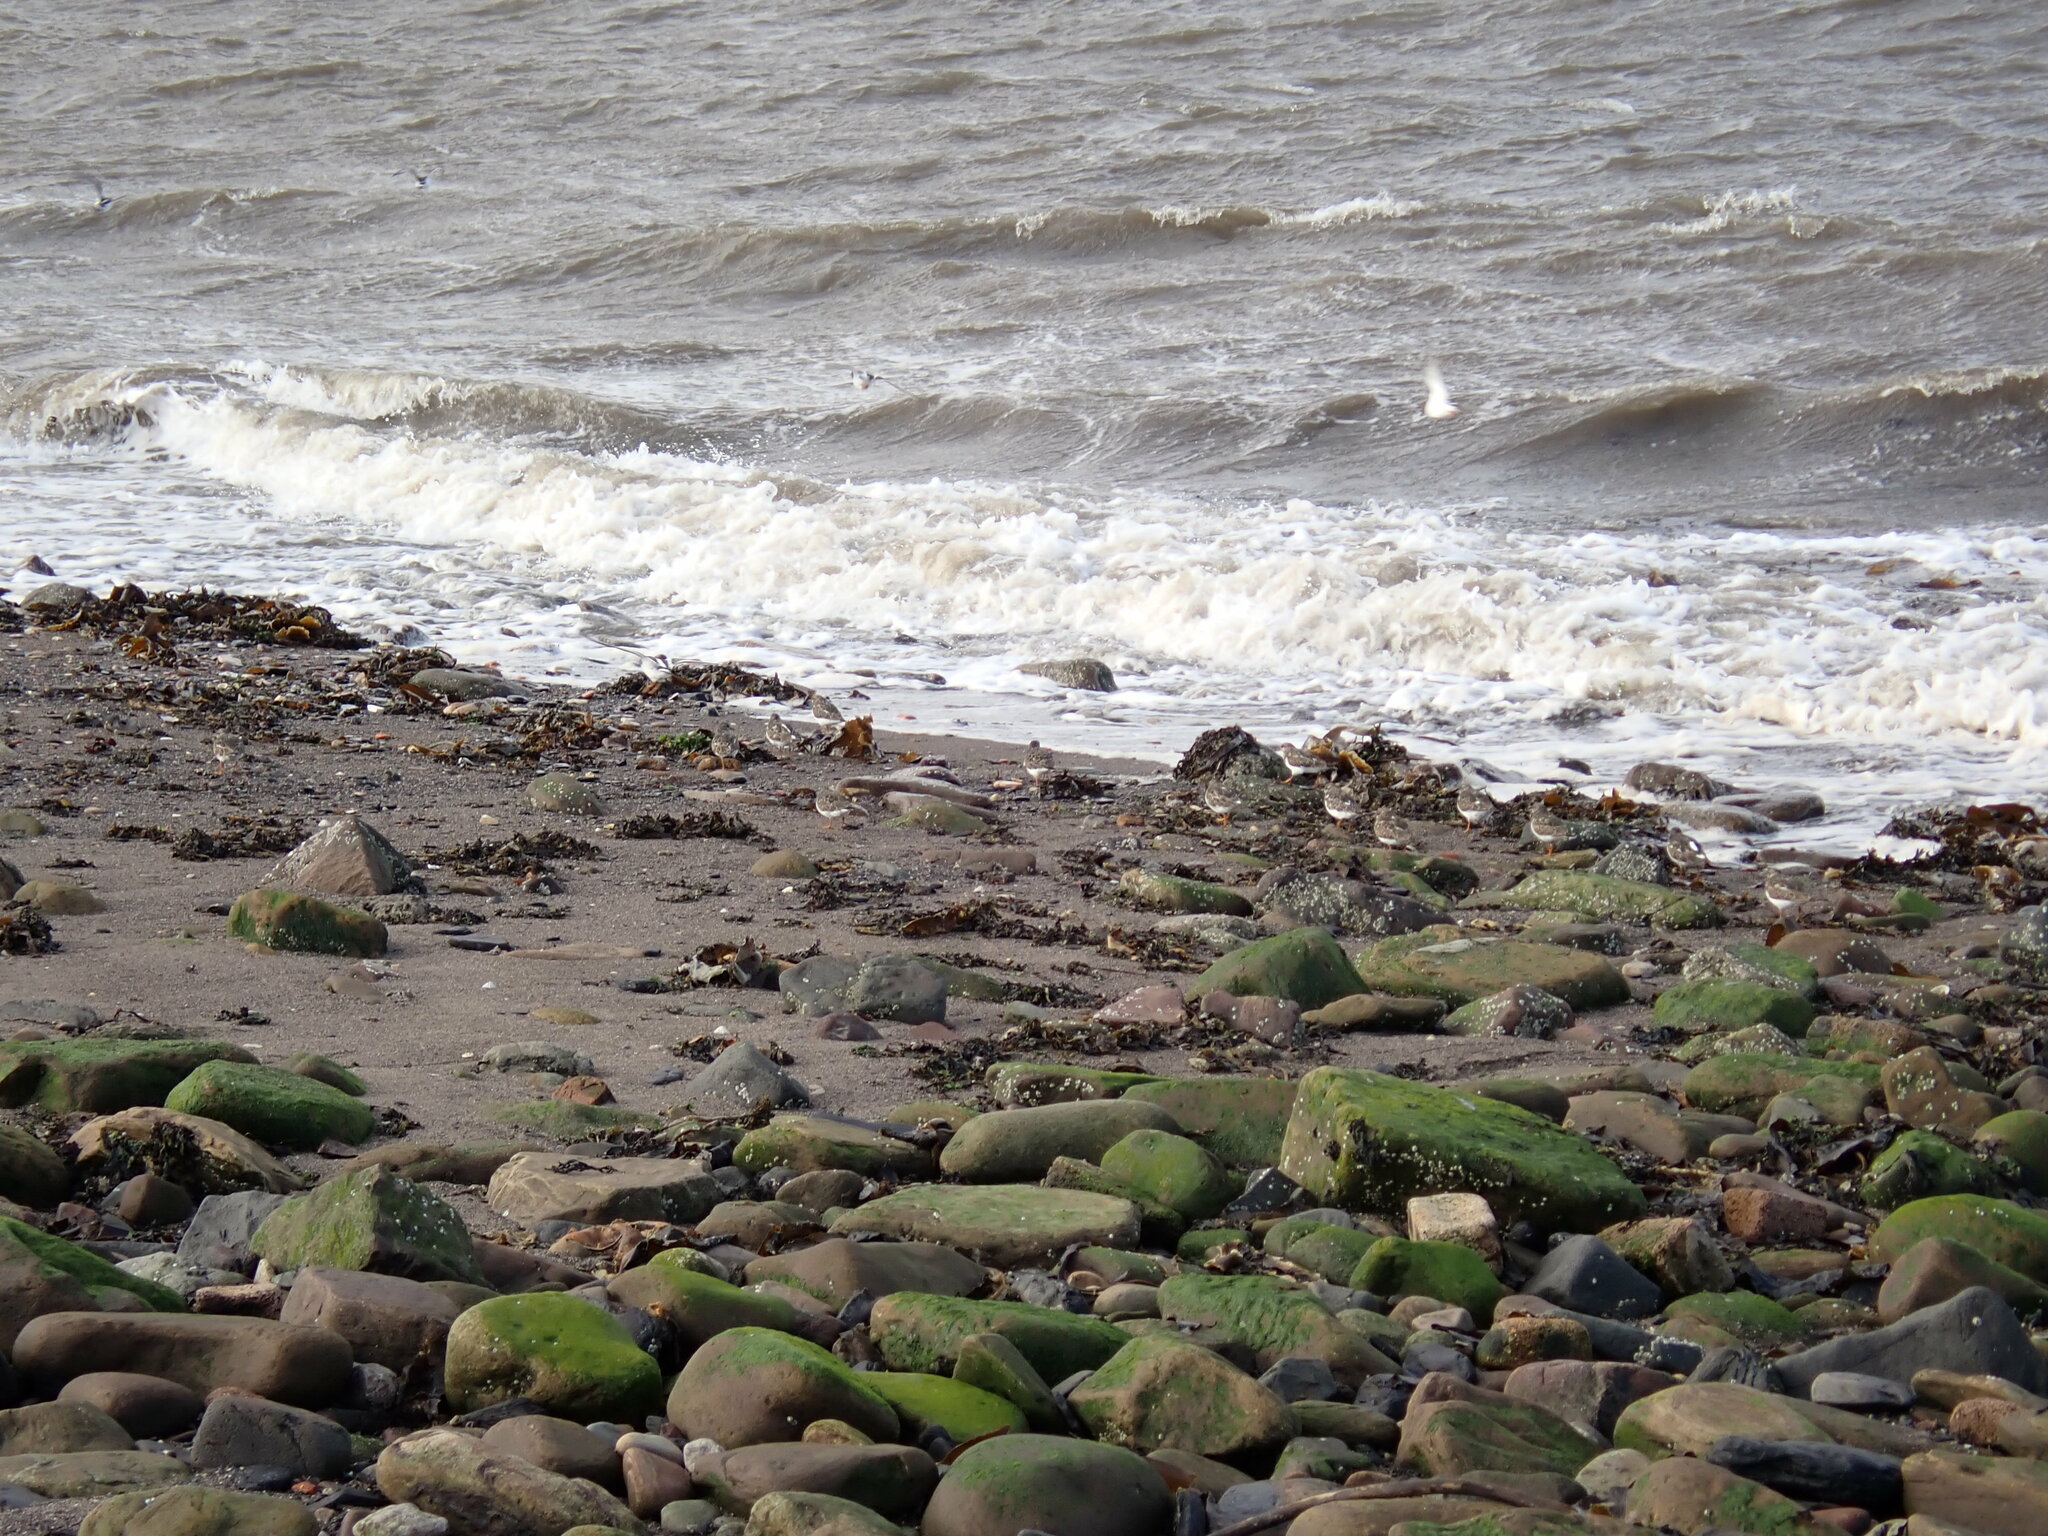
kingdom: Animalia
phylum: Chordata
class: Aves
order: Charadriiformes
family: Scolopacidae
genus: Arenaria
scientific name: Arenaria interpres
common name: Ruddy turnstone
